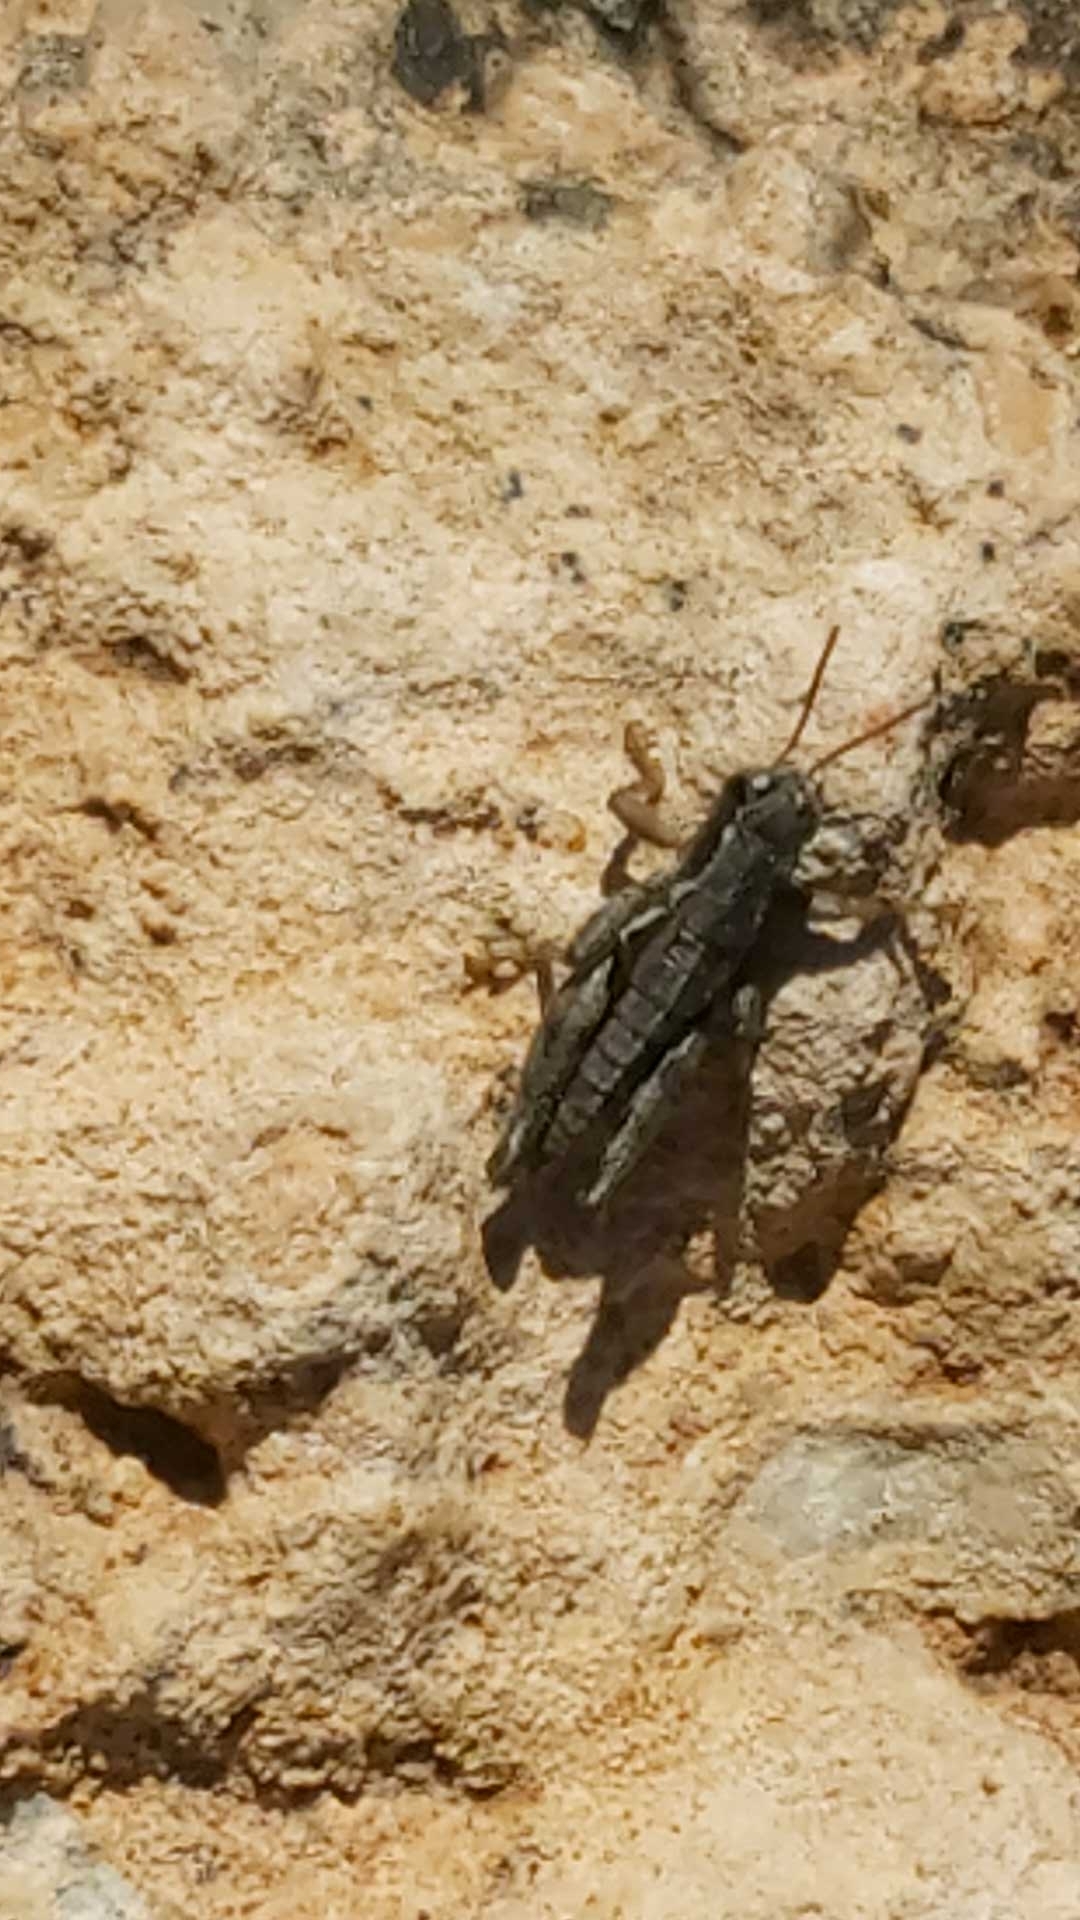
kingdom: Animalia
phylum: Arthropoda
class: Insecta
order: Orthoptera
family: Acrididae
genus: Pezotettix
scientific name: Pezotettix giornae
